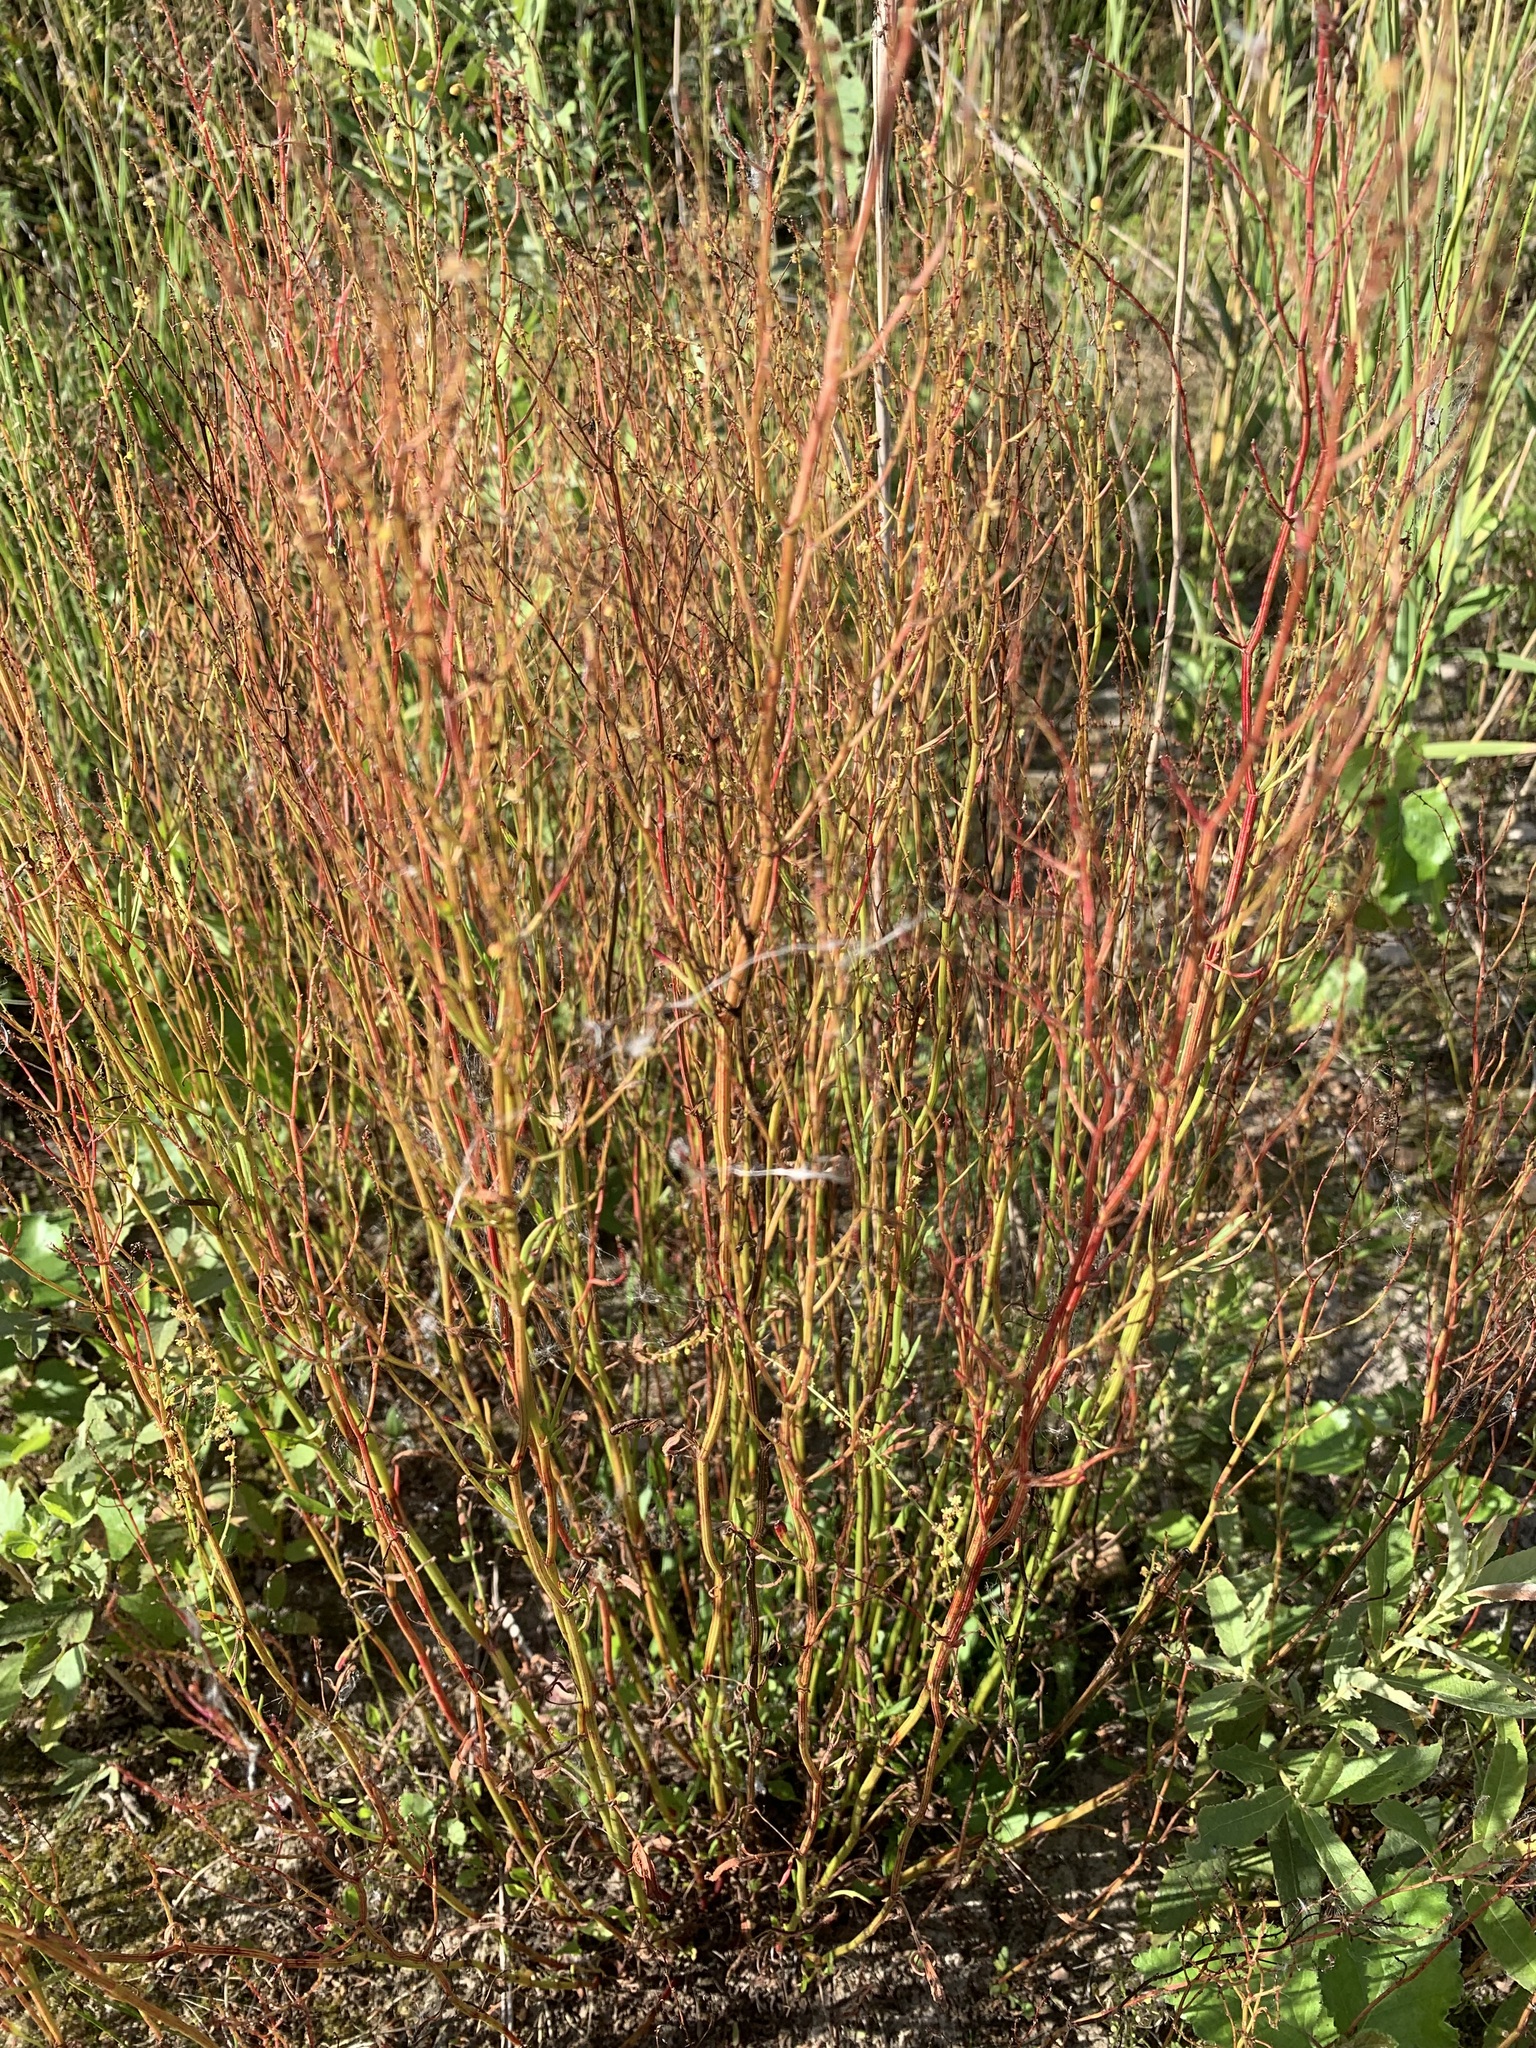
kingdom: Plantae
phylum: Tracheophyta
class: Magnoliopsida
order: Caryophyllales
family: Polygonaceae
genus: Rumex
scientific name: Rumex acetosella
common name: Common sheep sorrel
